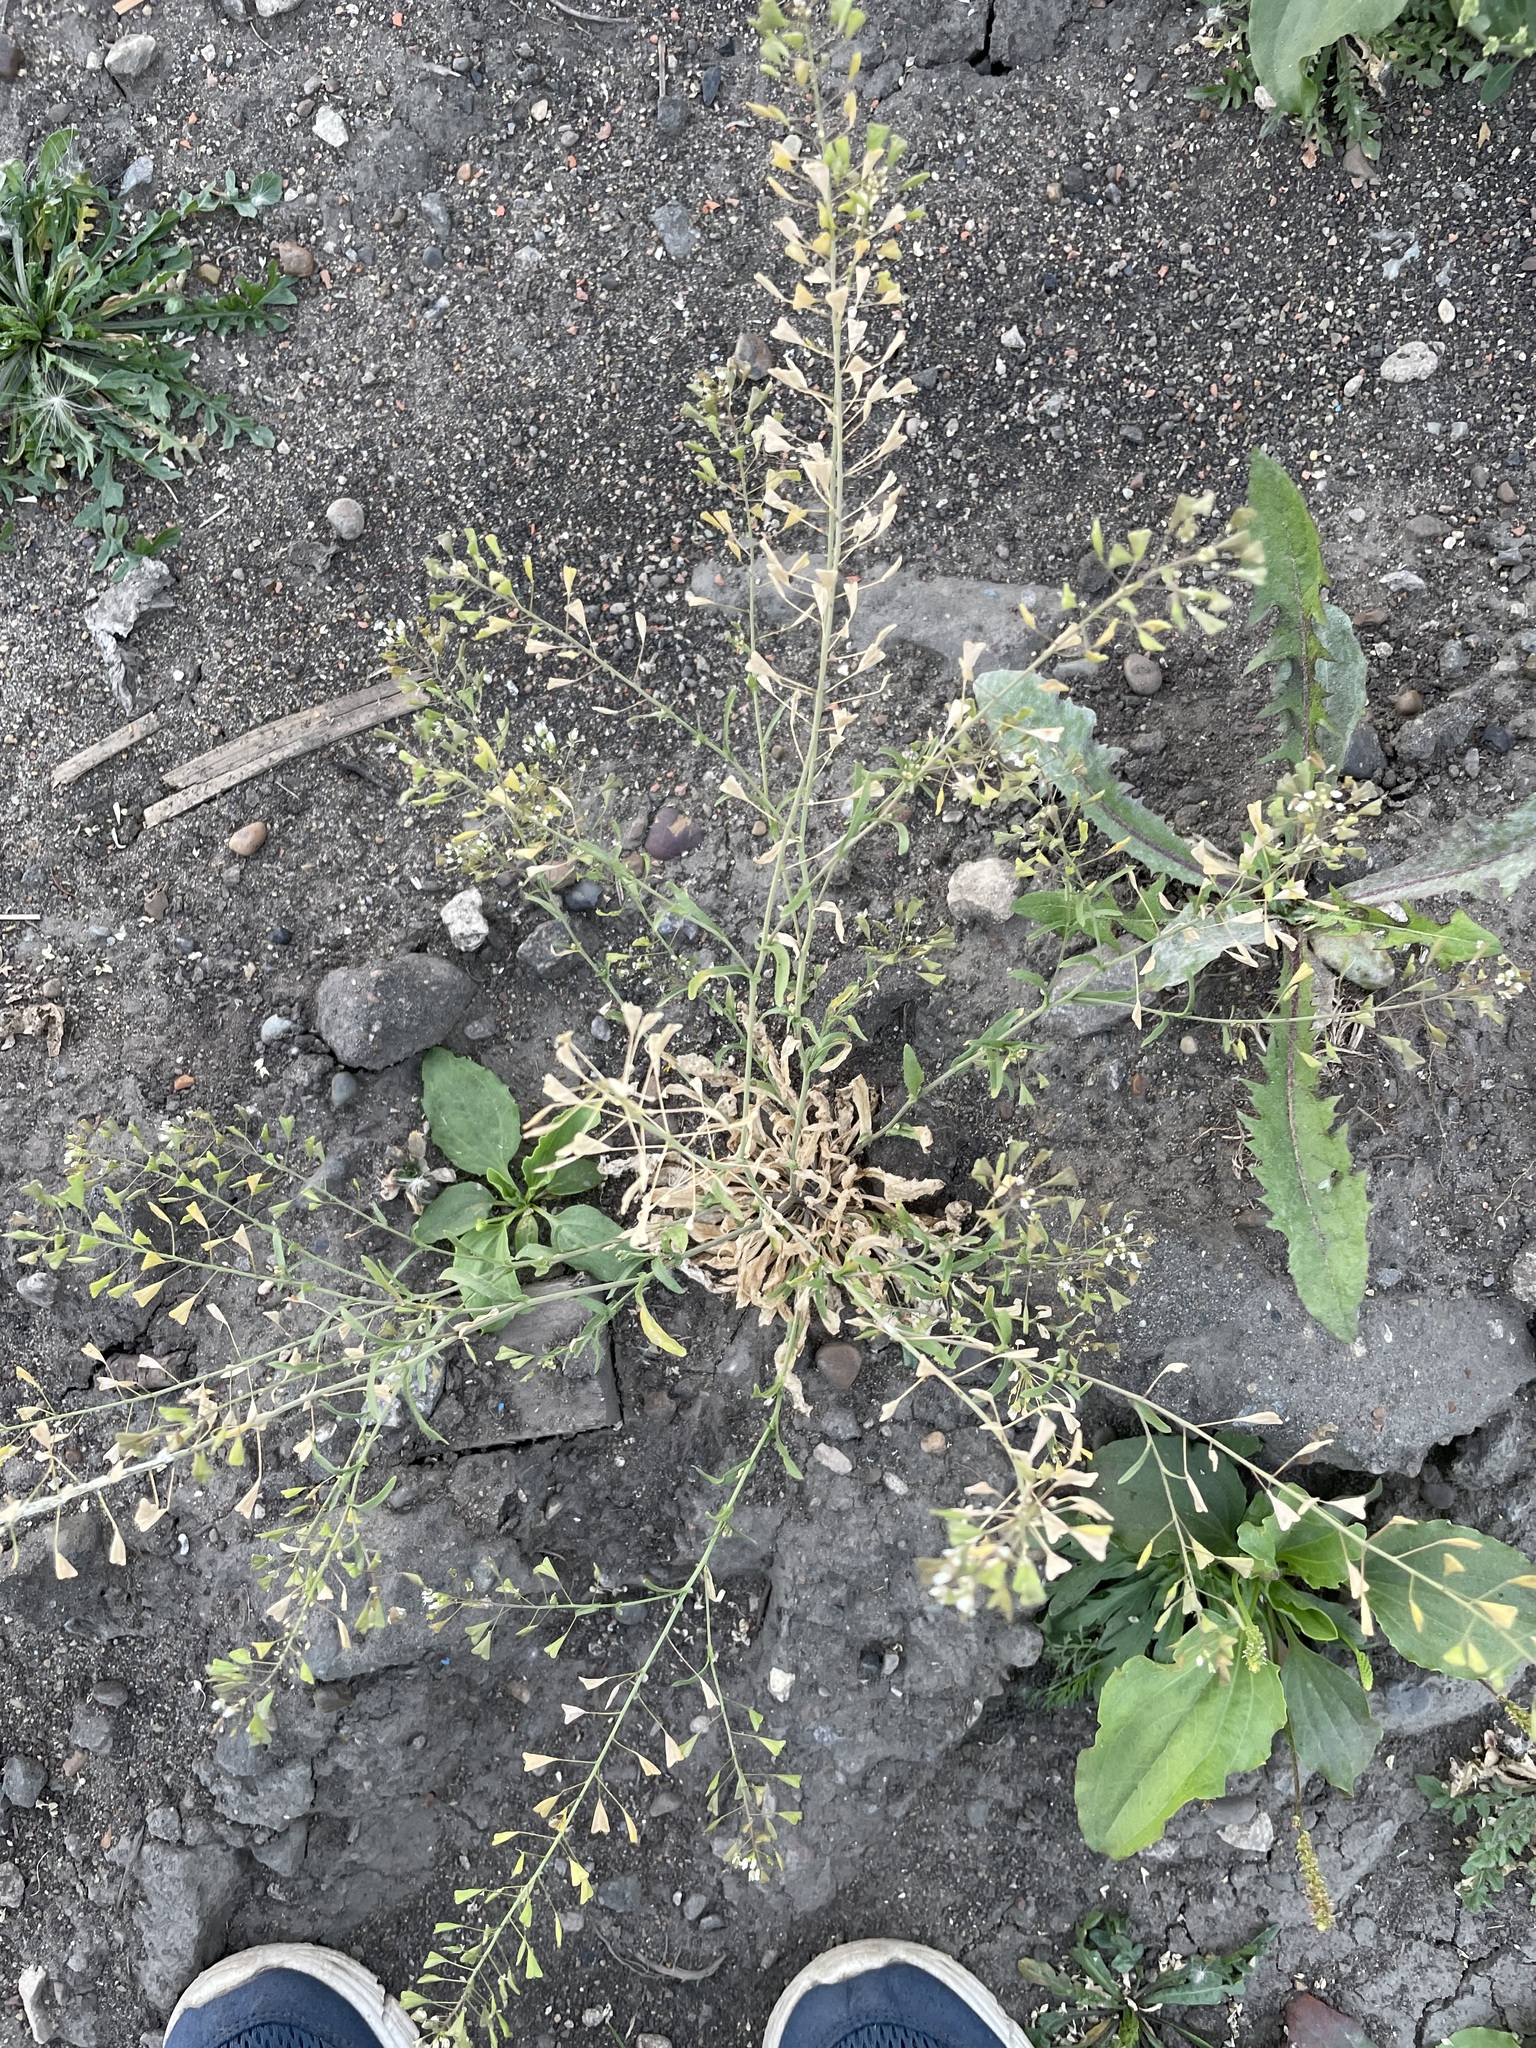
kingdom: Plantae
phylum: Tracheophyta
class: Magnoliopsida
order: Brassicales
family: Brassicaceae
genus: Capsella
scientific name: Capsella bursa-pastoris
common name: Shepherd's purse
